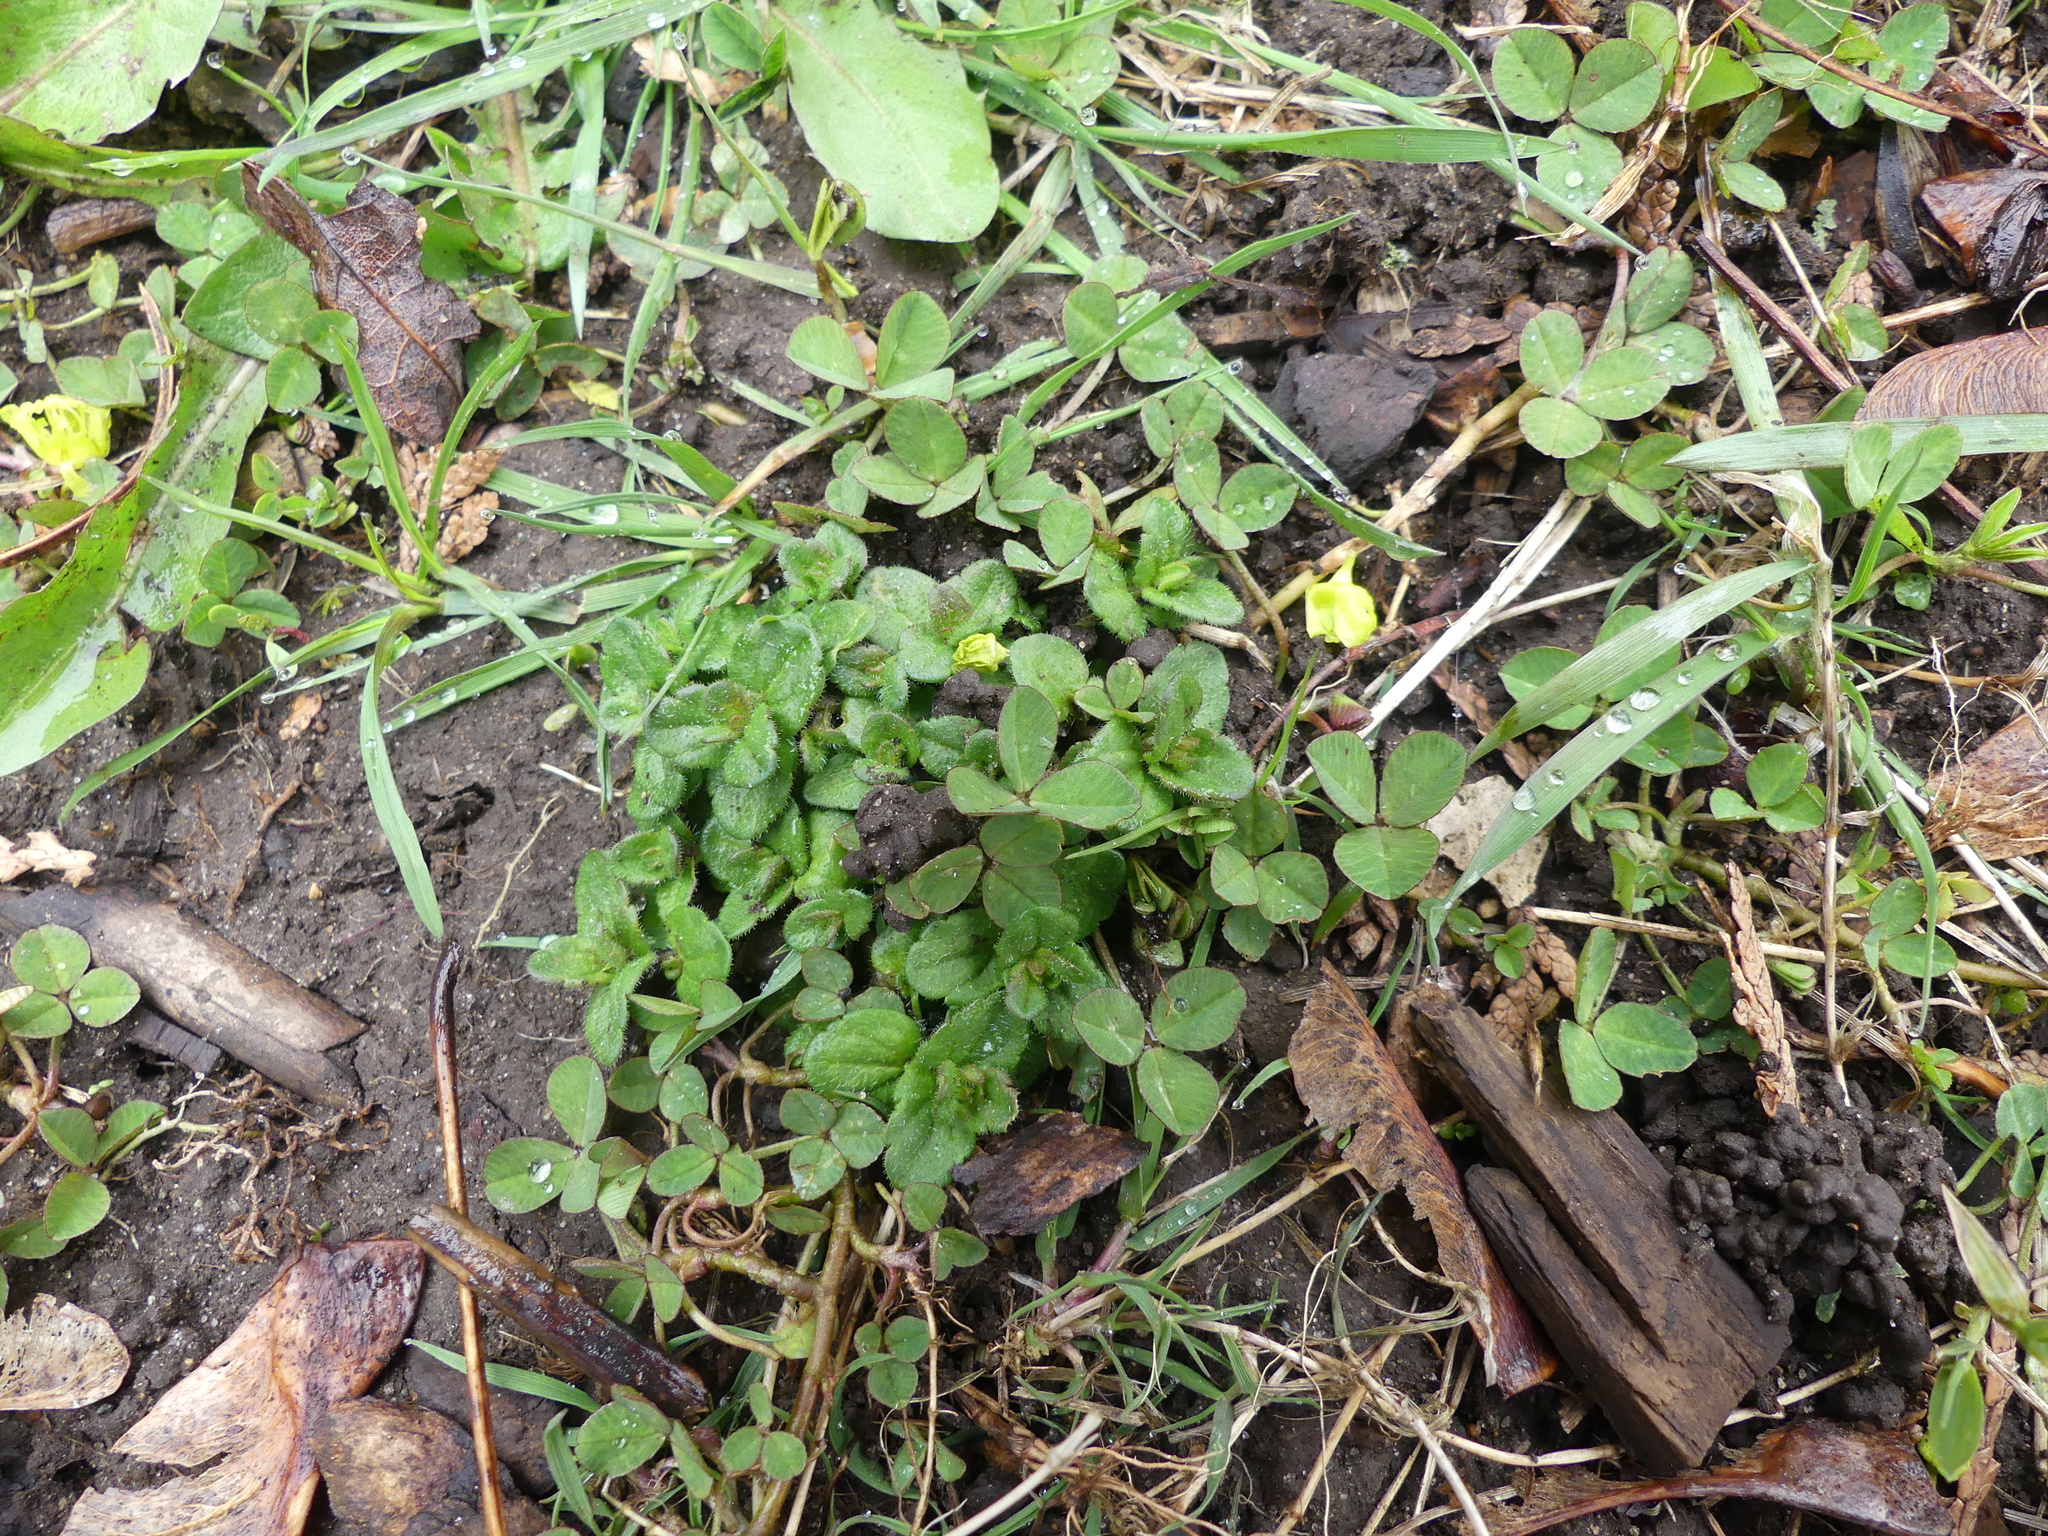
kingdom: Plantae
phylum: Tracheophyta
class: Magnoliopsida
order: Fabales
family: Fabaceae
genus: Trifolium
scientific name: Trifolium repens
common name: White clover
